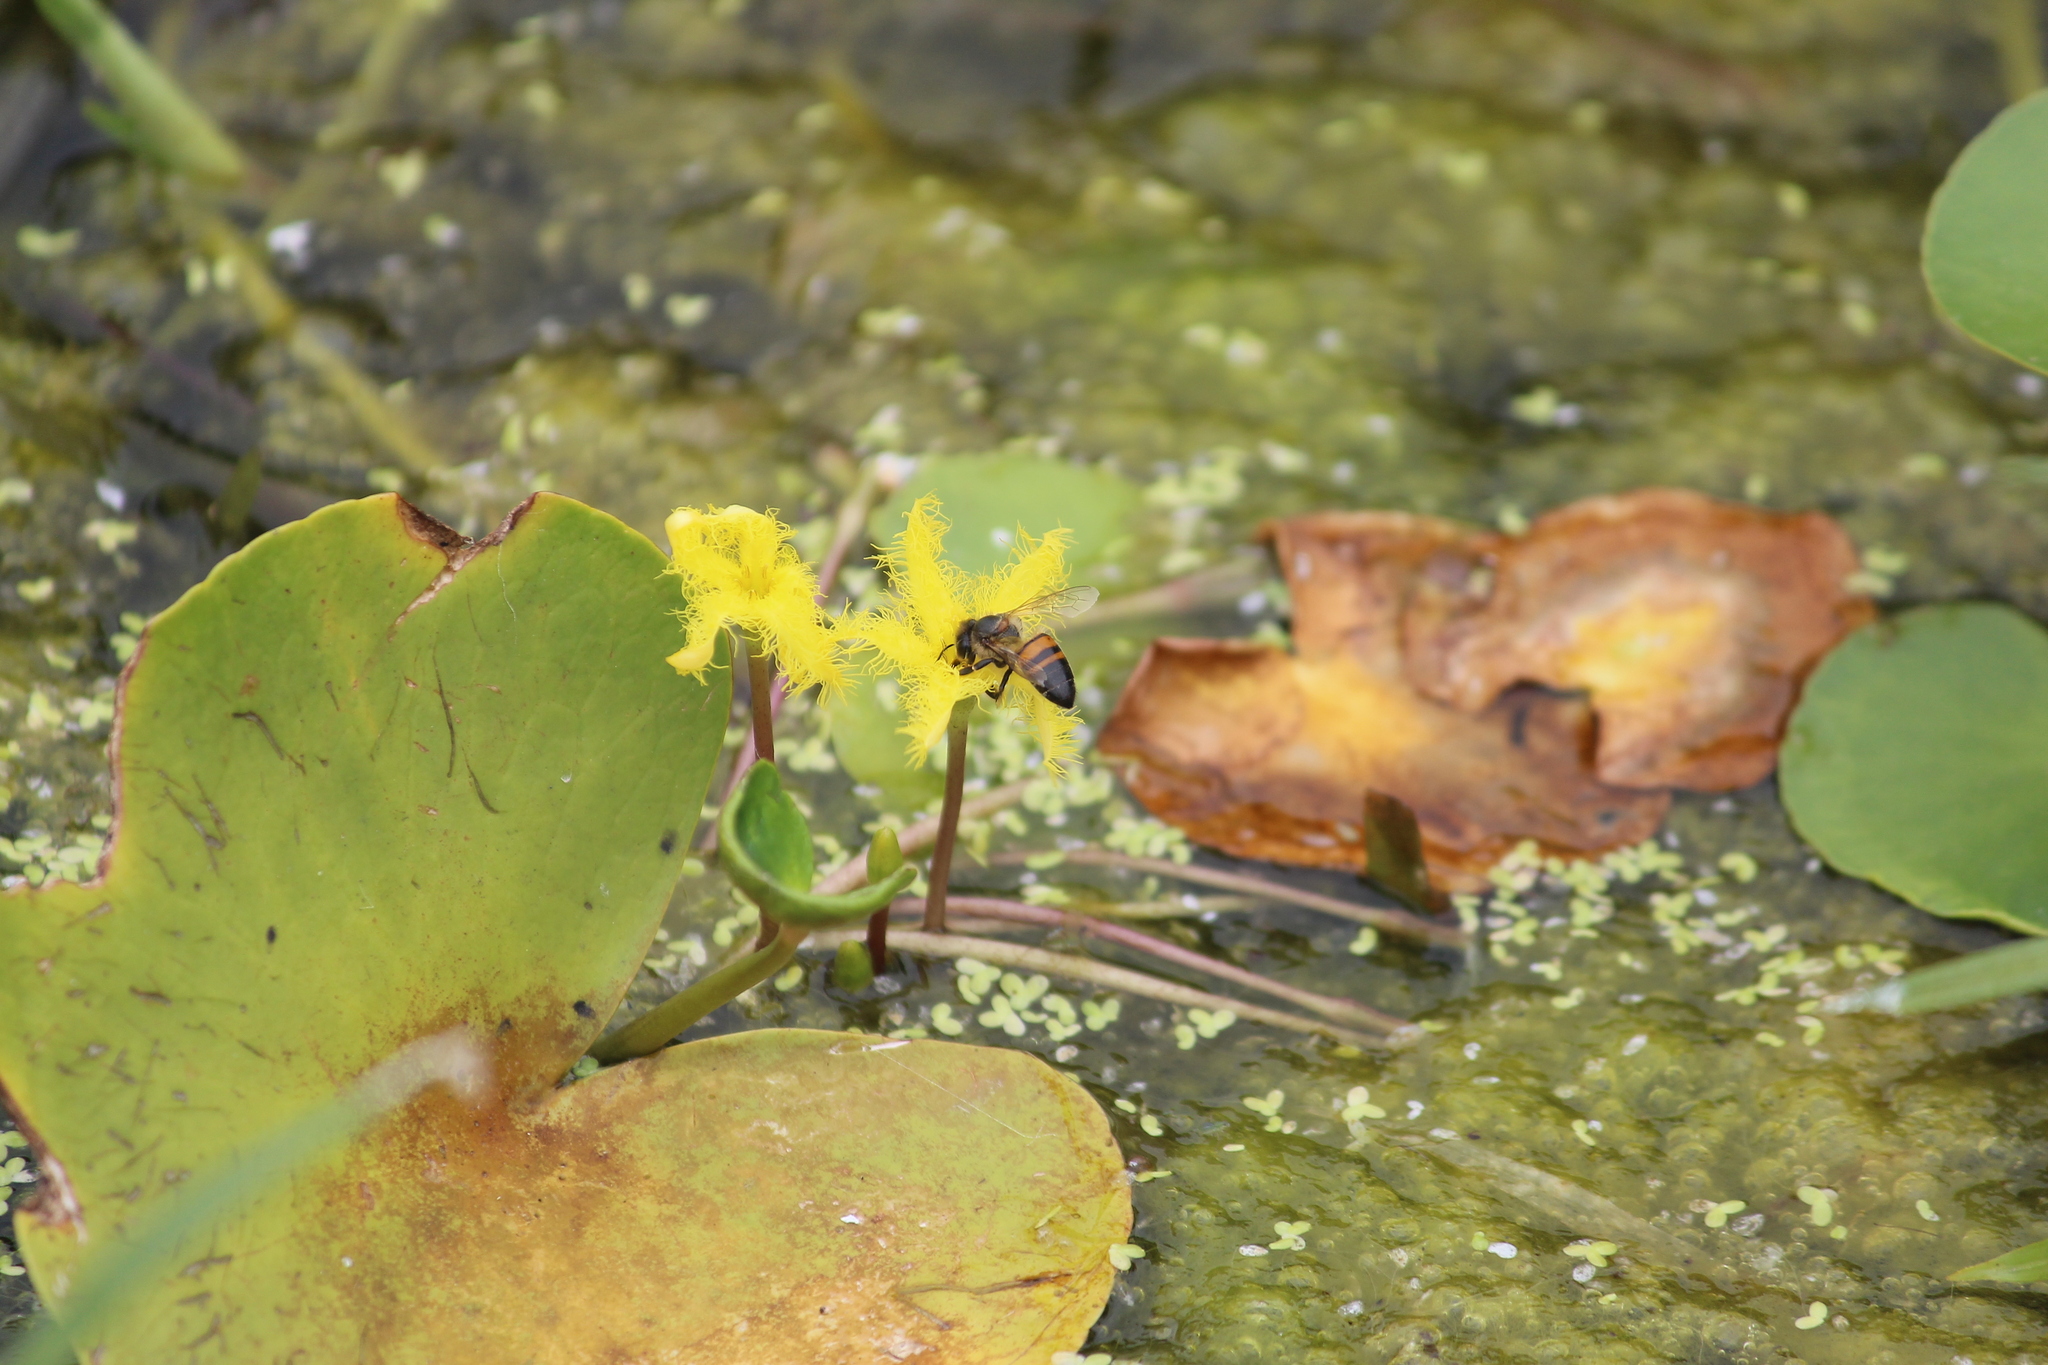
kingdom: Animalia
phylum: Arthropoda
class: Insecta
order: Hymenoptera
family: Apidae
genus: Apis
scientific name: Apis mellifera
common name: Honey bee
